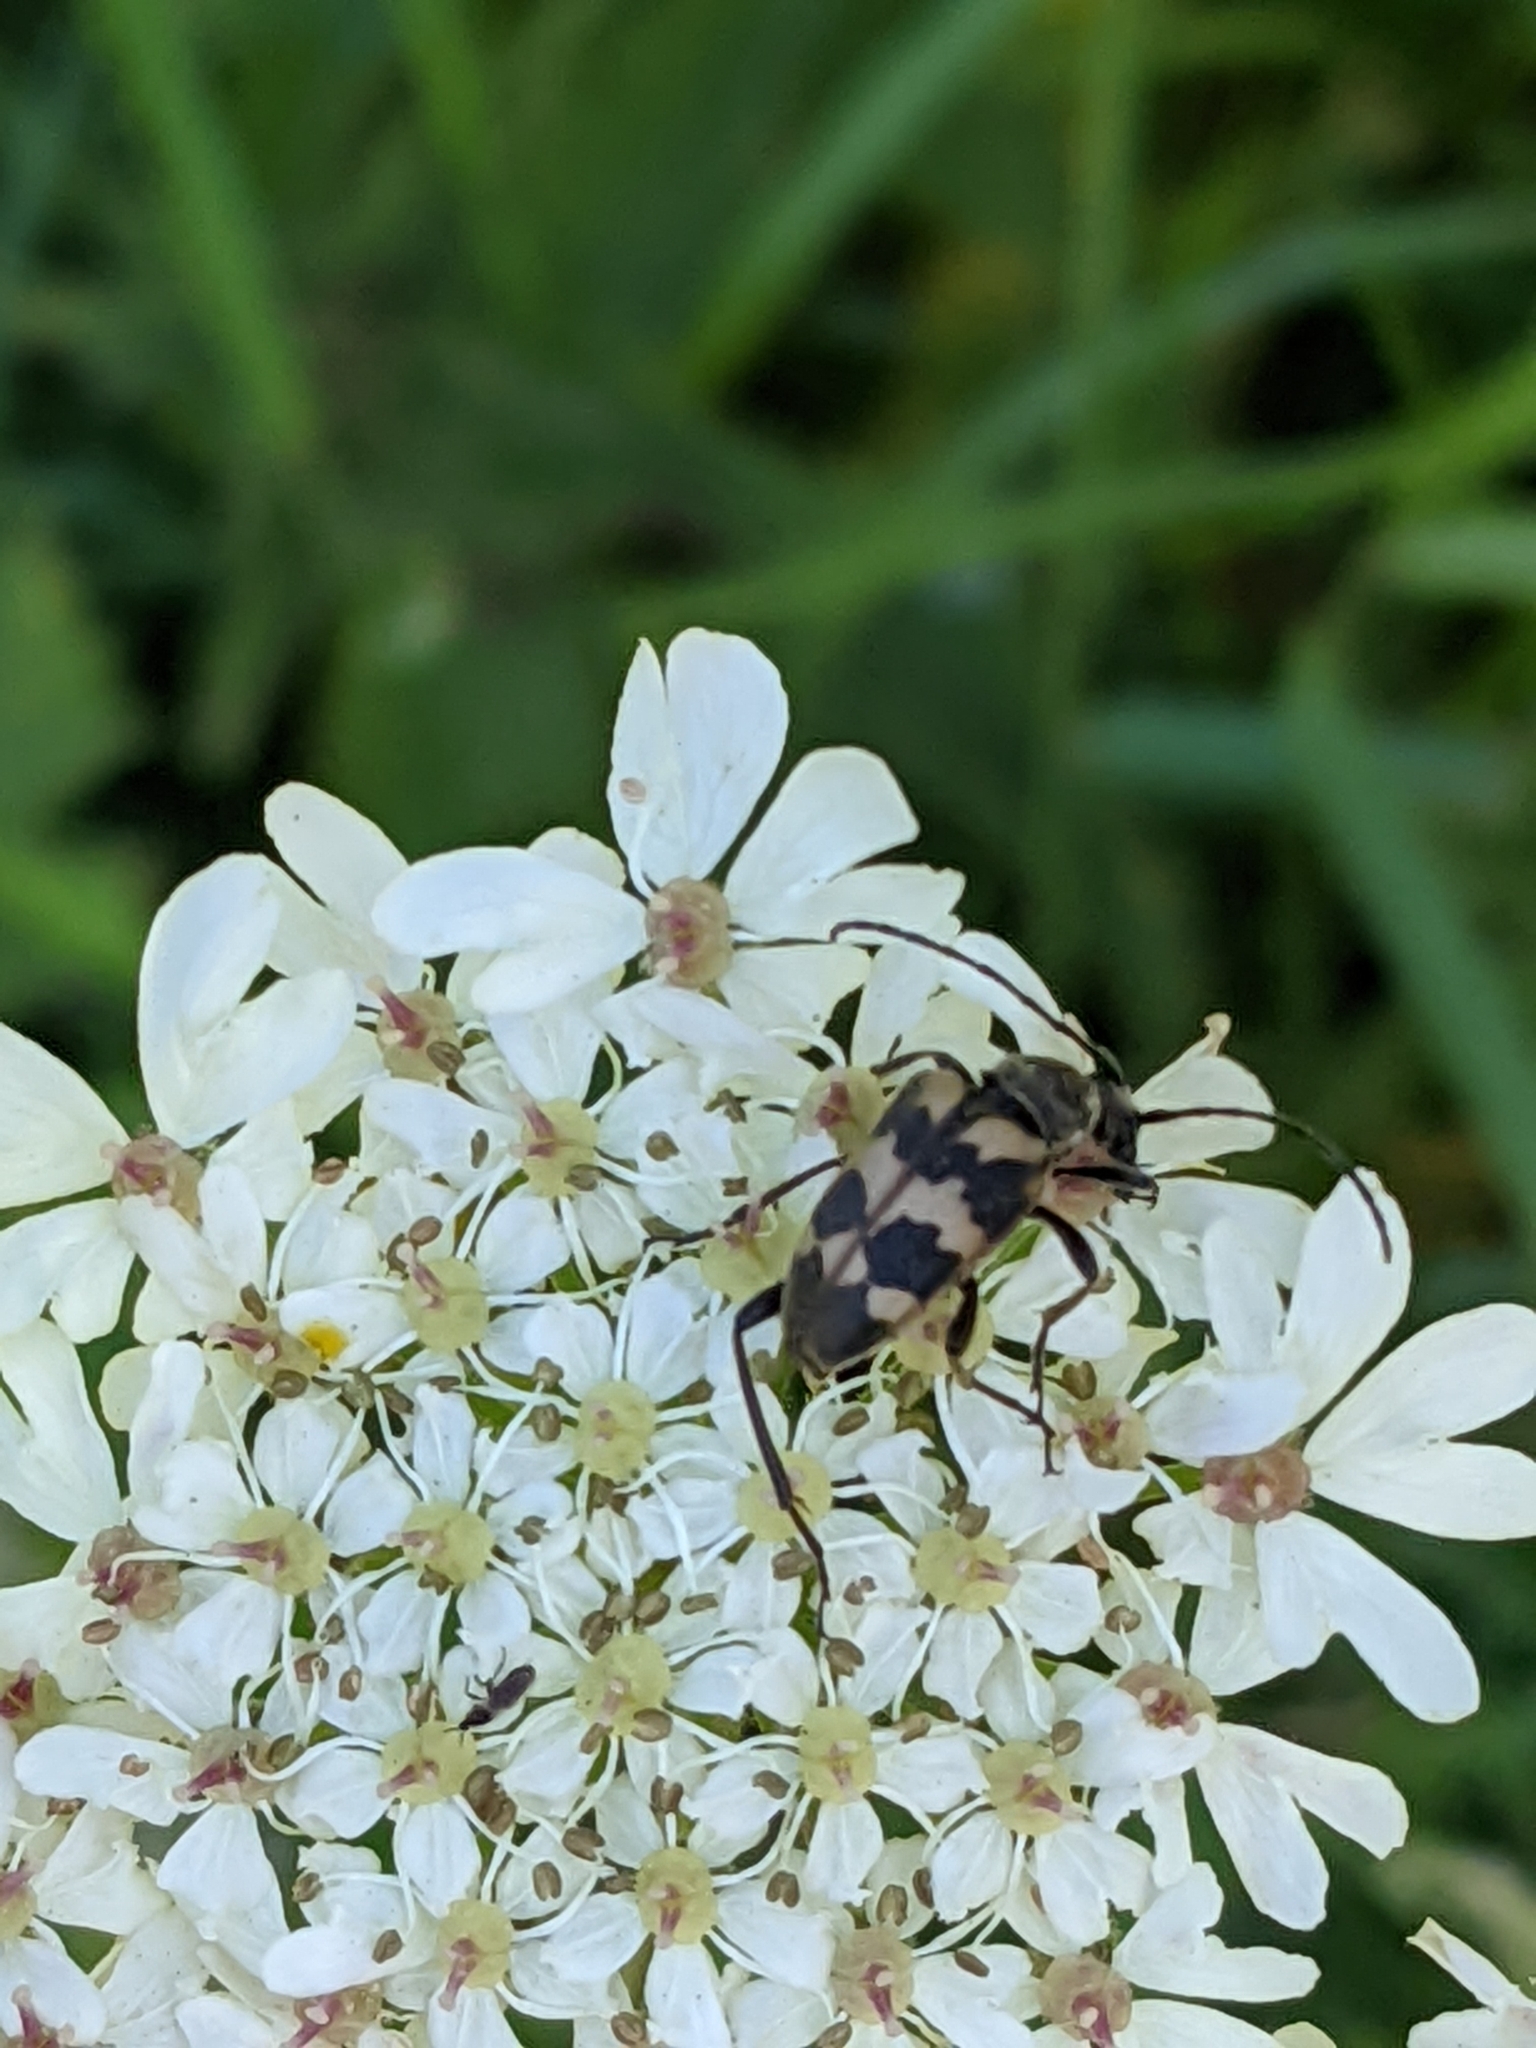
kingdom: Animalia
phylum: Arthropoda
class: Insecta
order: Coleoptera
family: Cerambycidae
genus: Pachytodes
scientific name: Pachytodes cerambyciformis
